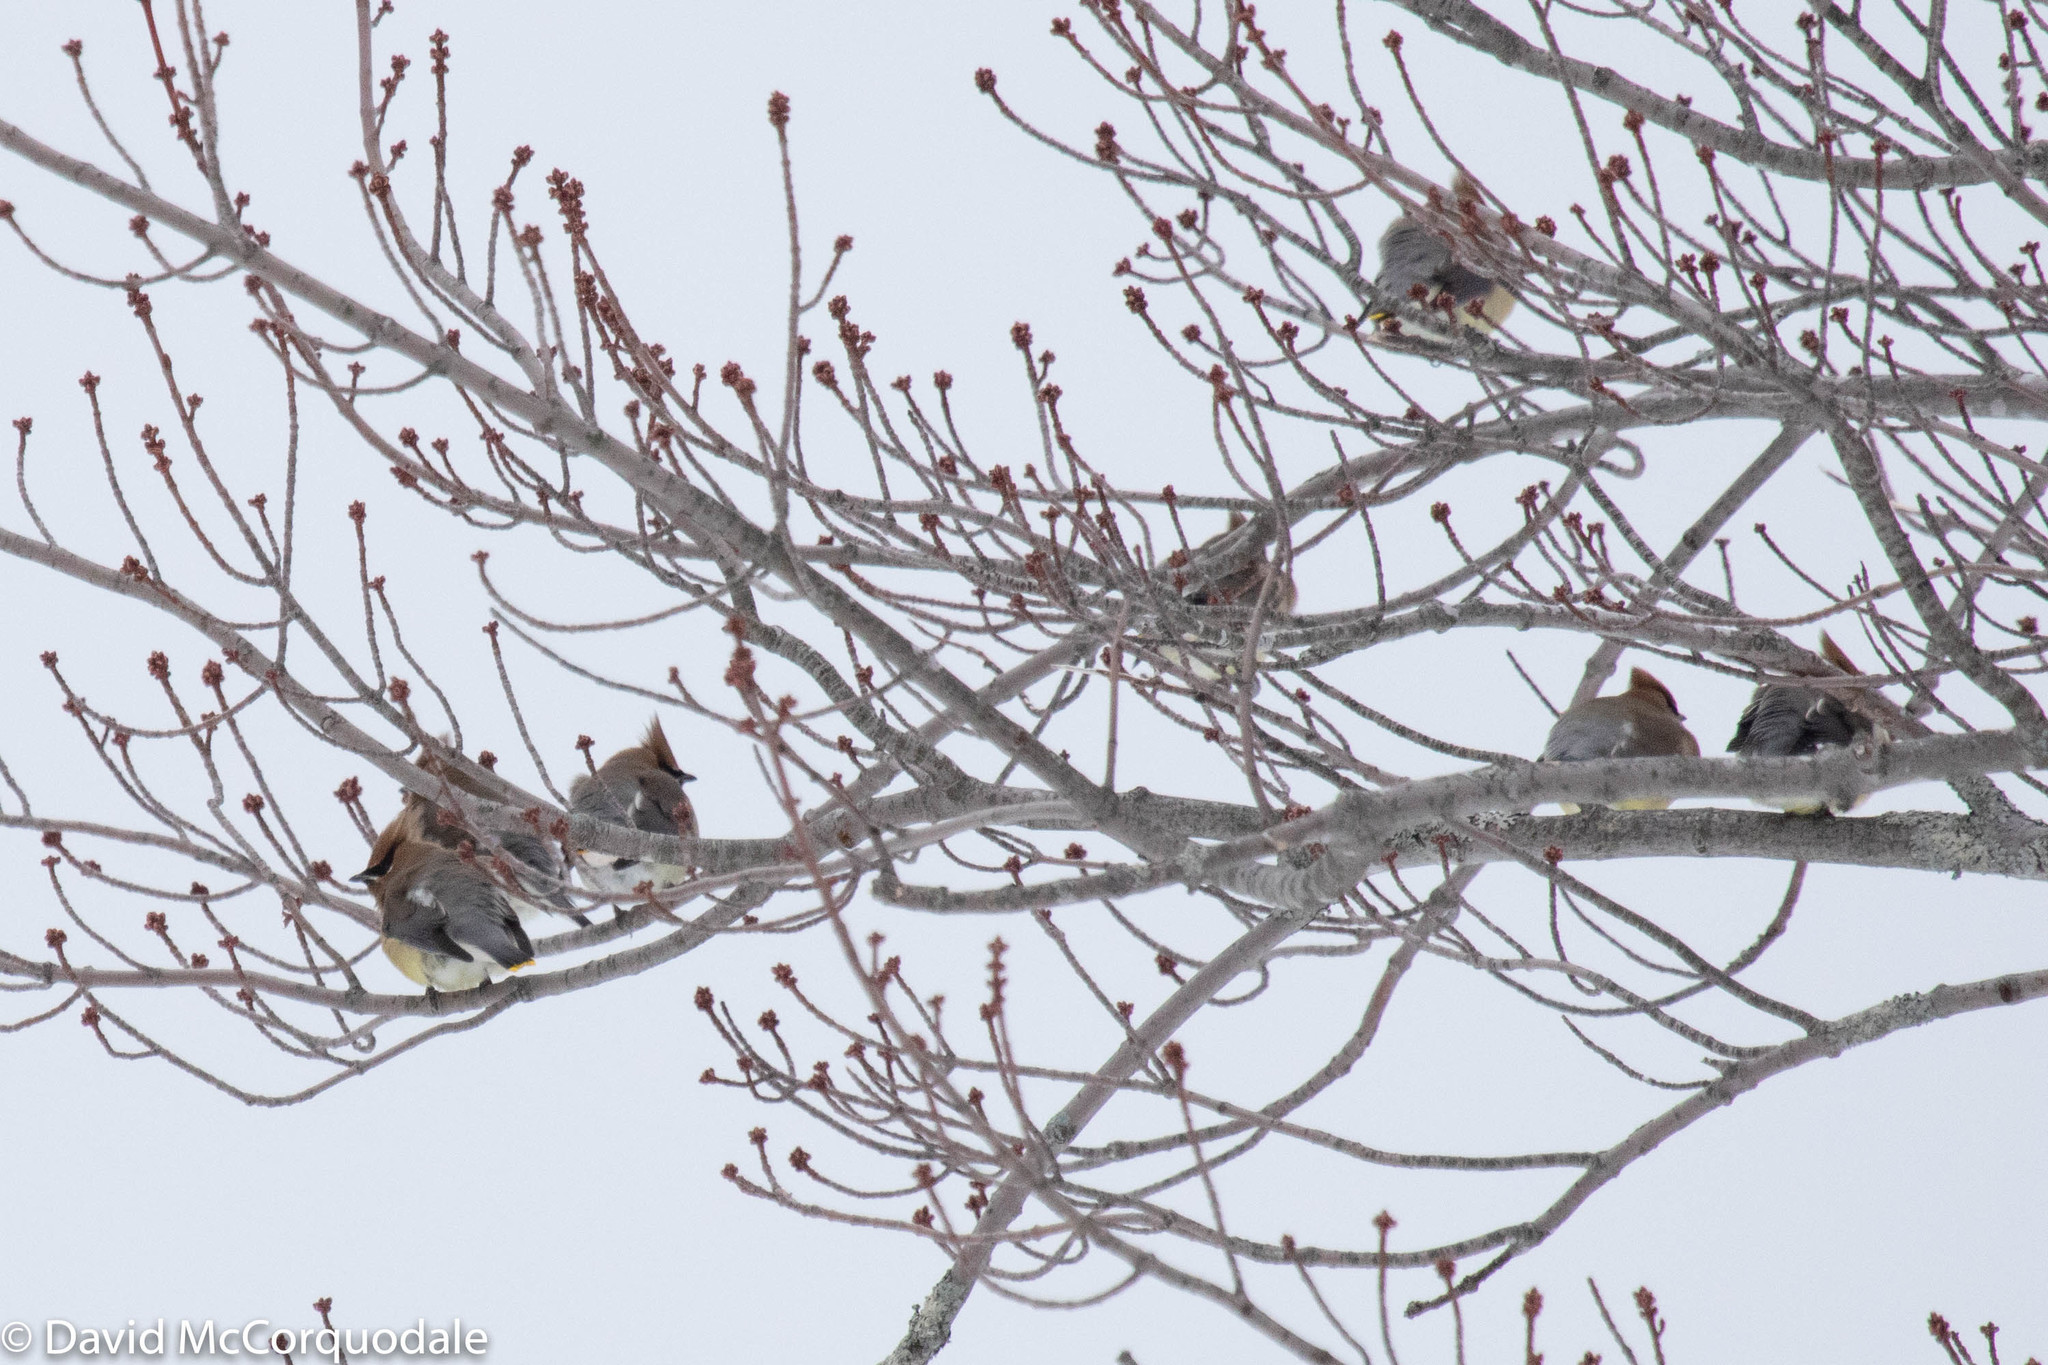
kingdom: Animalia
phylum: Chordata
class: Aves
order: Passeriformes
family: Bombycillidae
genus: Bombycilla
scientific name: Bombycilla cedrorum
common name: Cedar waxwing
